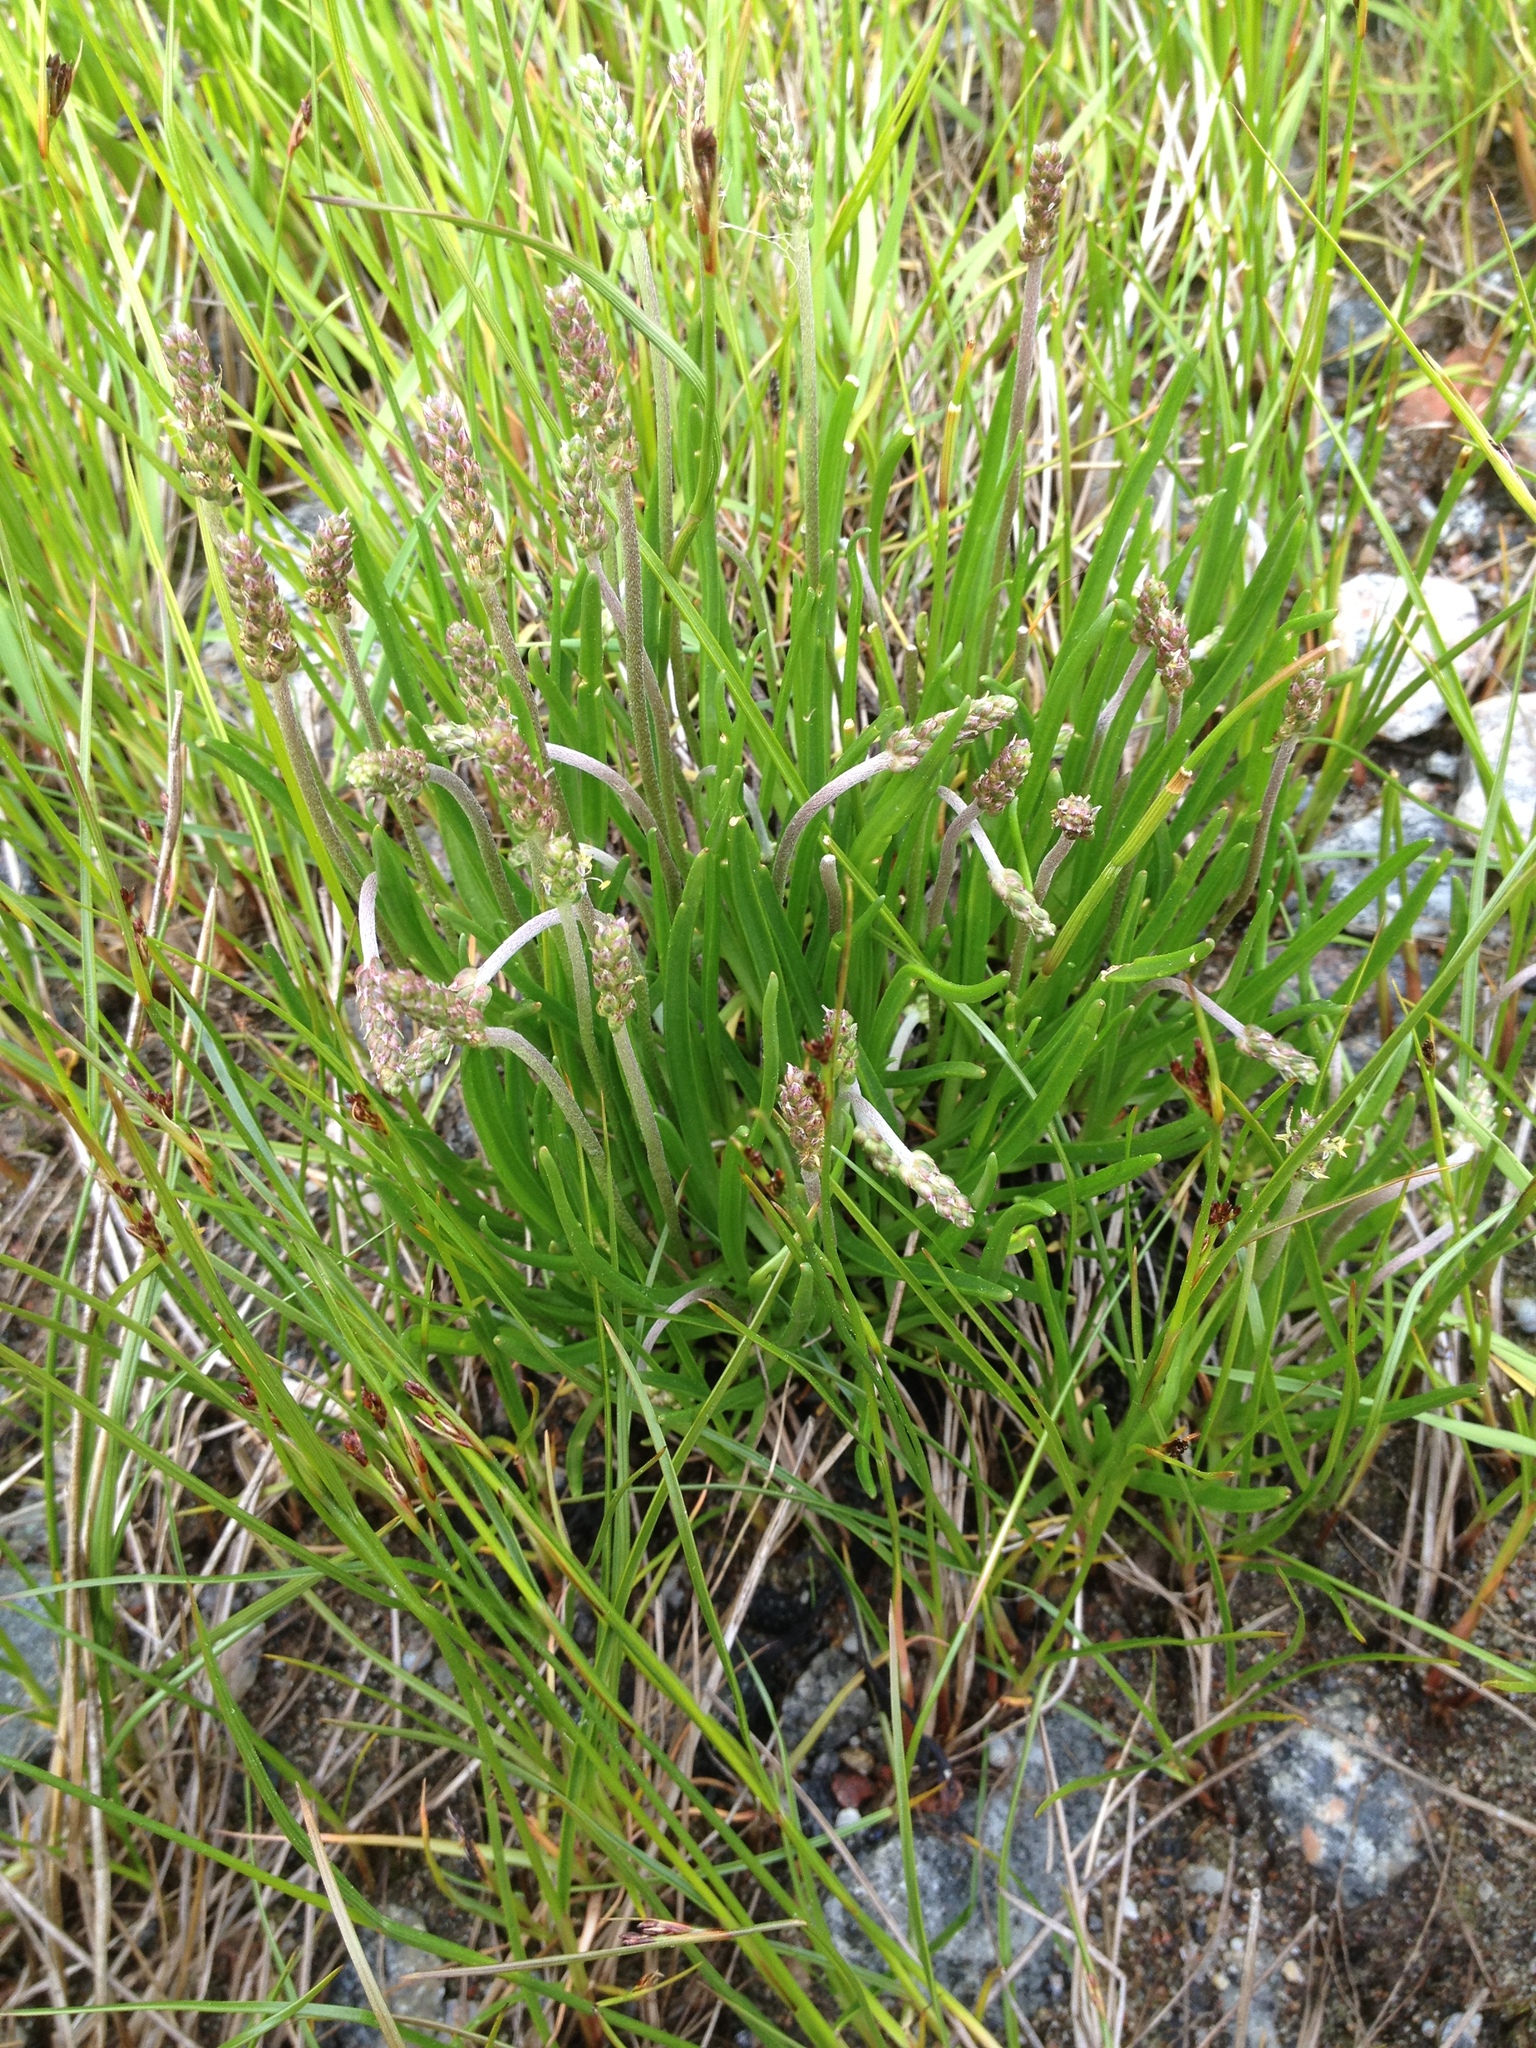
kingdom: Plantae
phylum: Tracheophyta
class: Magnoliopsida
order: Lamiales
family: Plantaginaceae
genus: Plantago
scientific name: Plantago maritima
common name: Sea plantain
